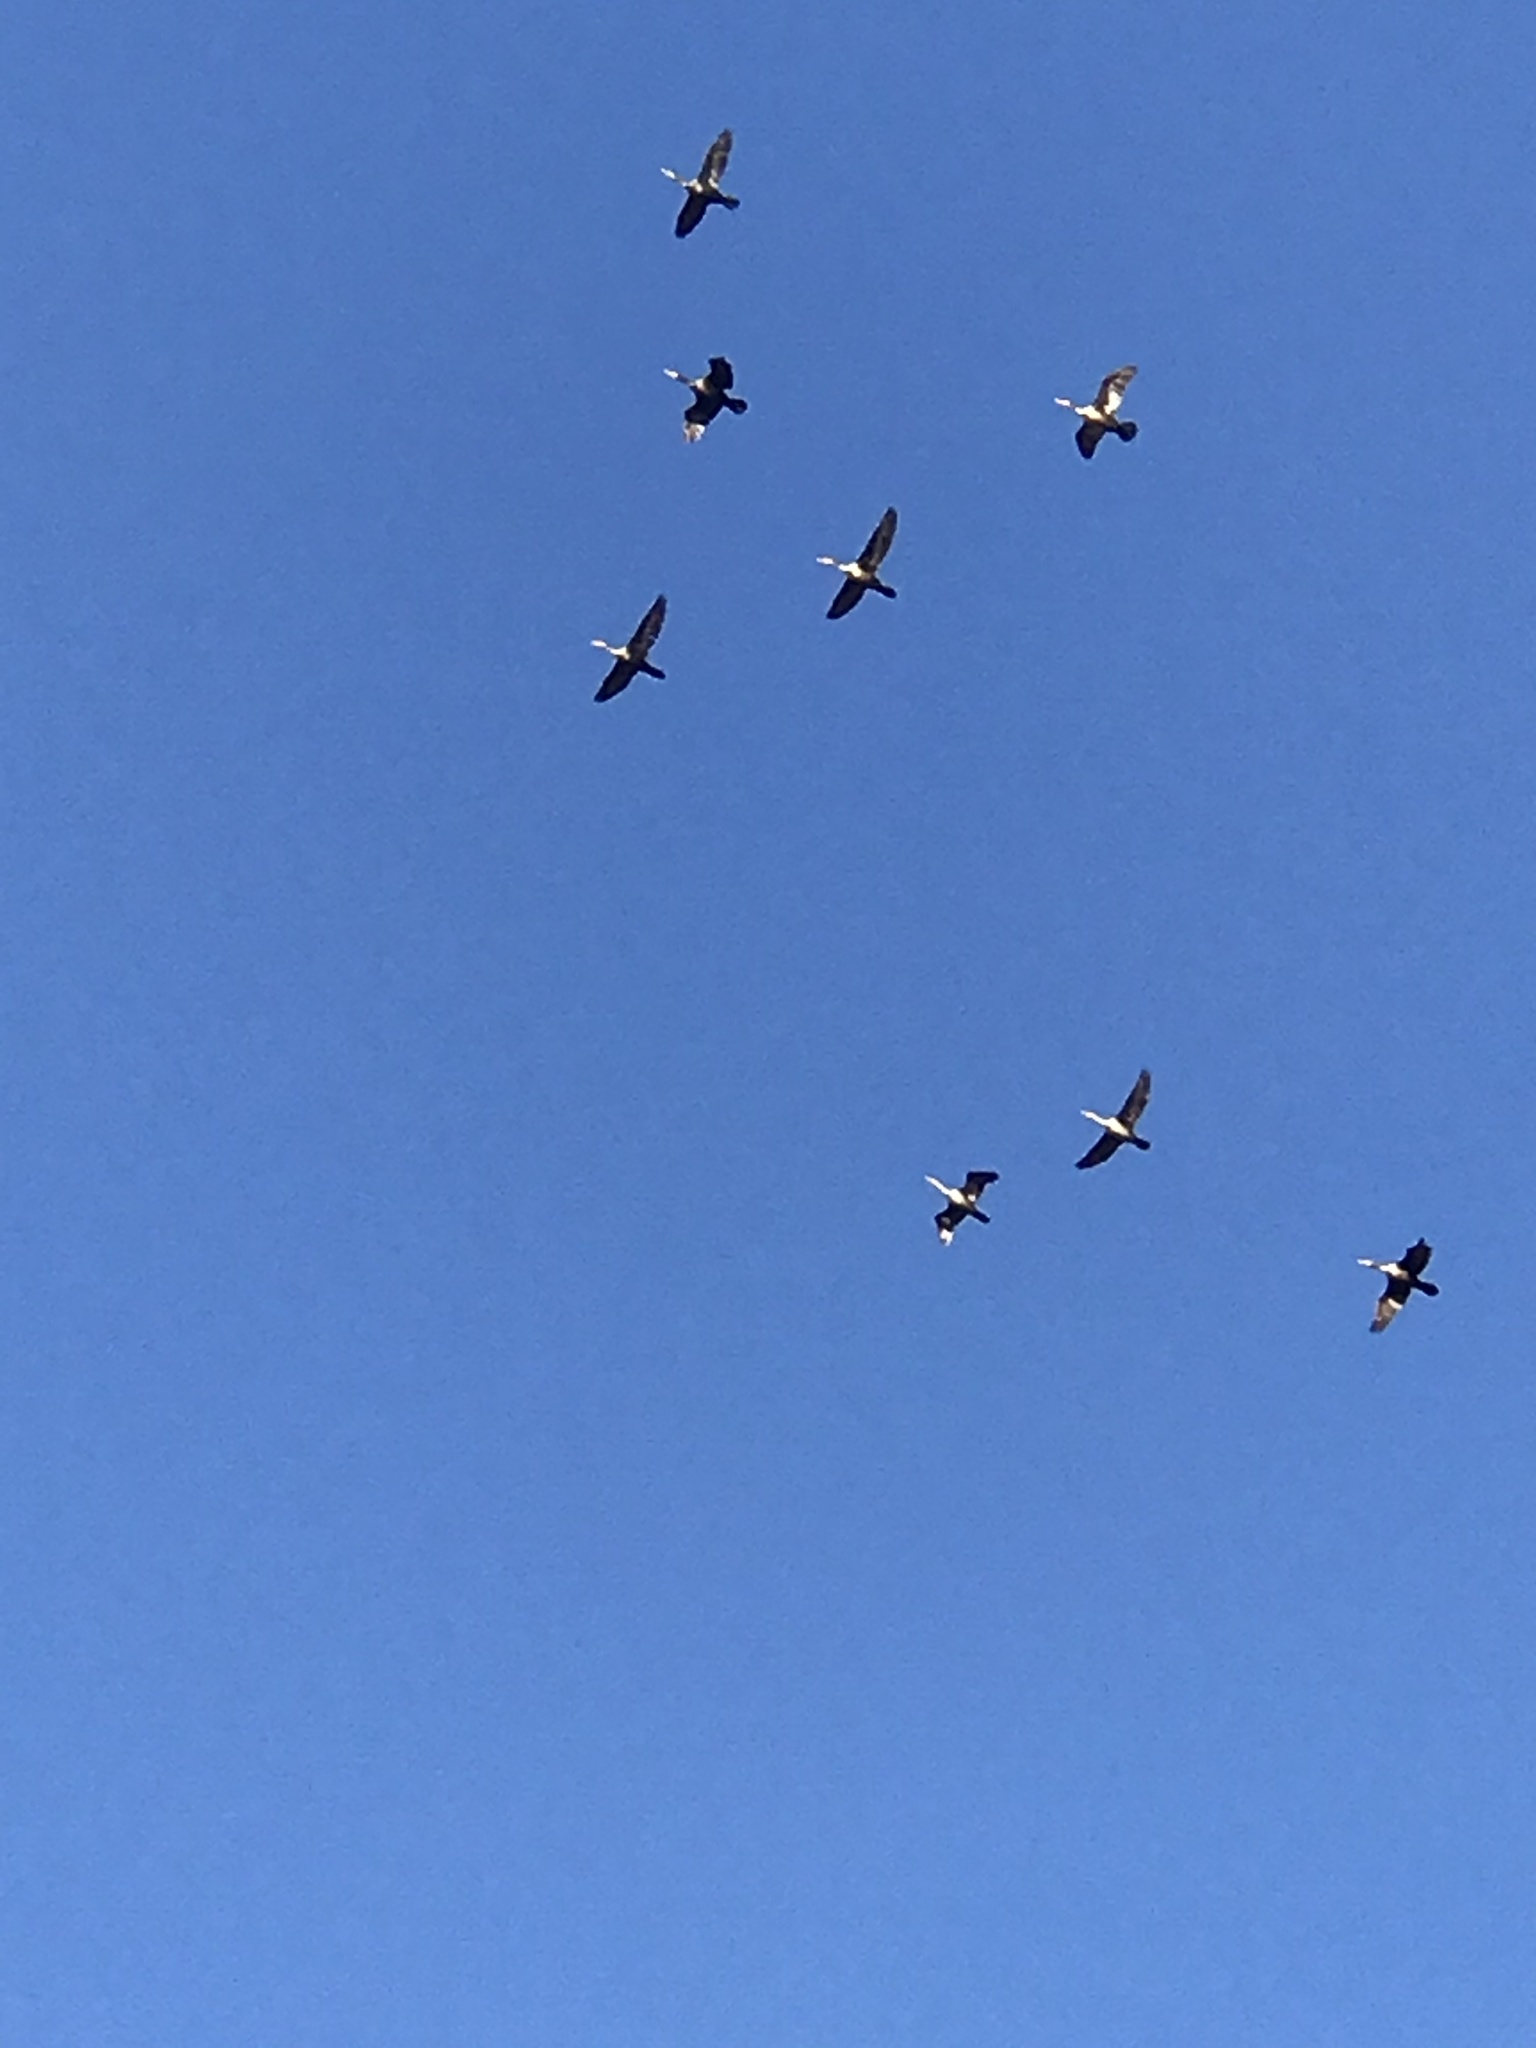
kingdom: Animalia
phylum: Chordata
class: Aves
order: Suliformes
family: Phalacrocoracidae
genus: Phalacrocorax
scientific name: Phalacrocorax auritus
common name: Double-crested cormorant
